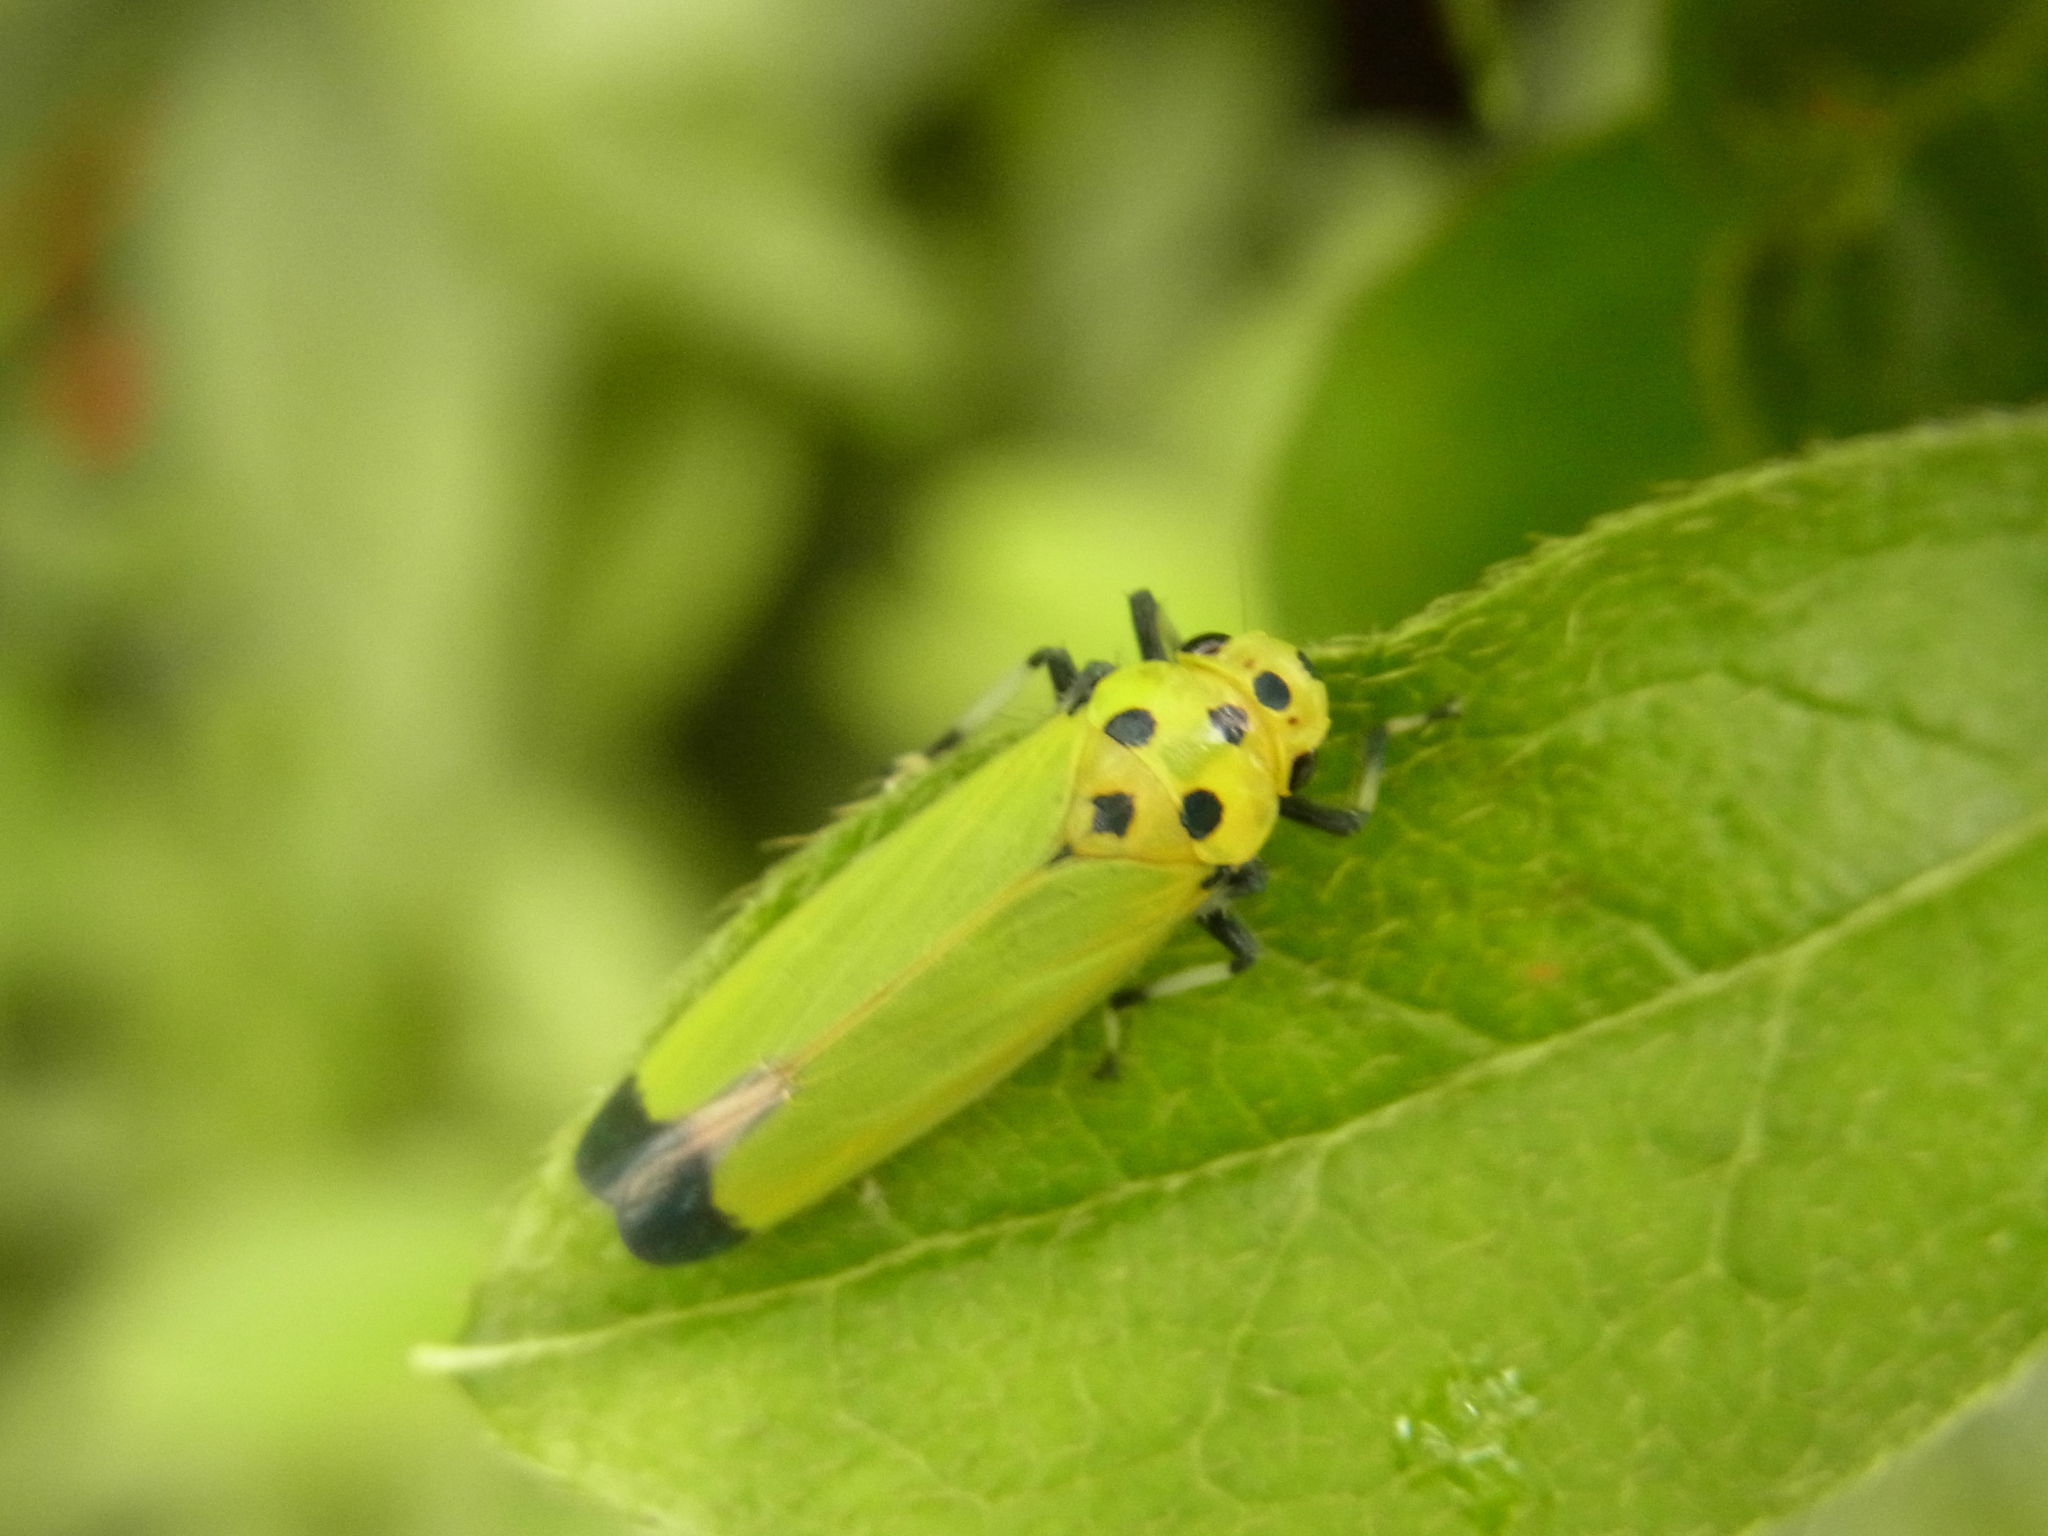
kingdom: Animalia
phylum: Arthropoda
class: Insecta
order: Hemiptera
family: Cicadellidae
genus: Bothrogonia
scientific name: Bothrogonia ferruginea
